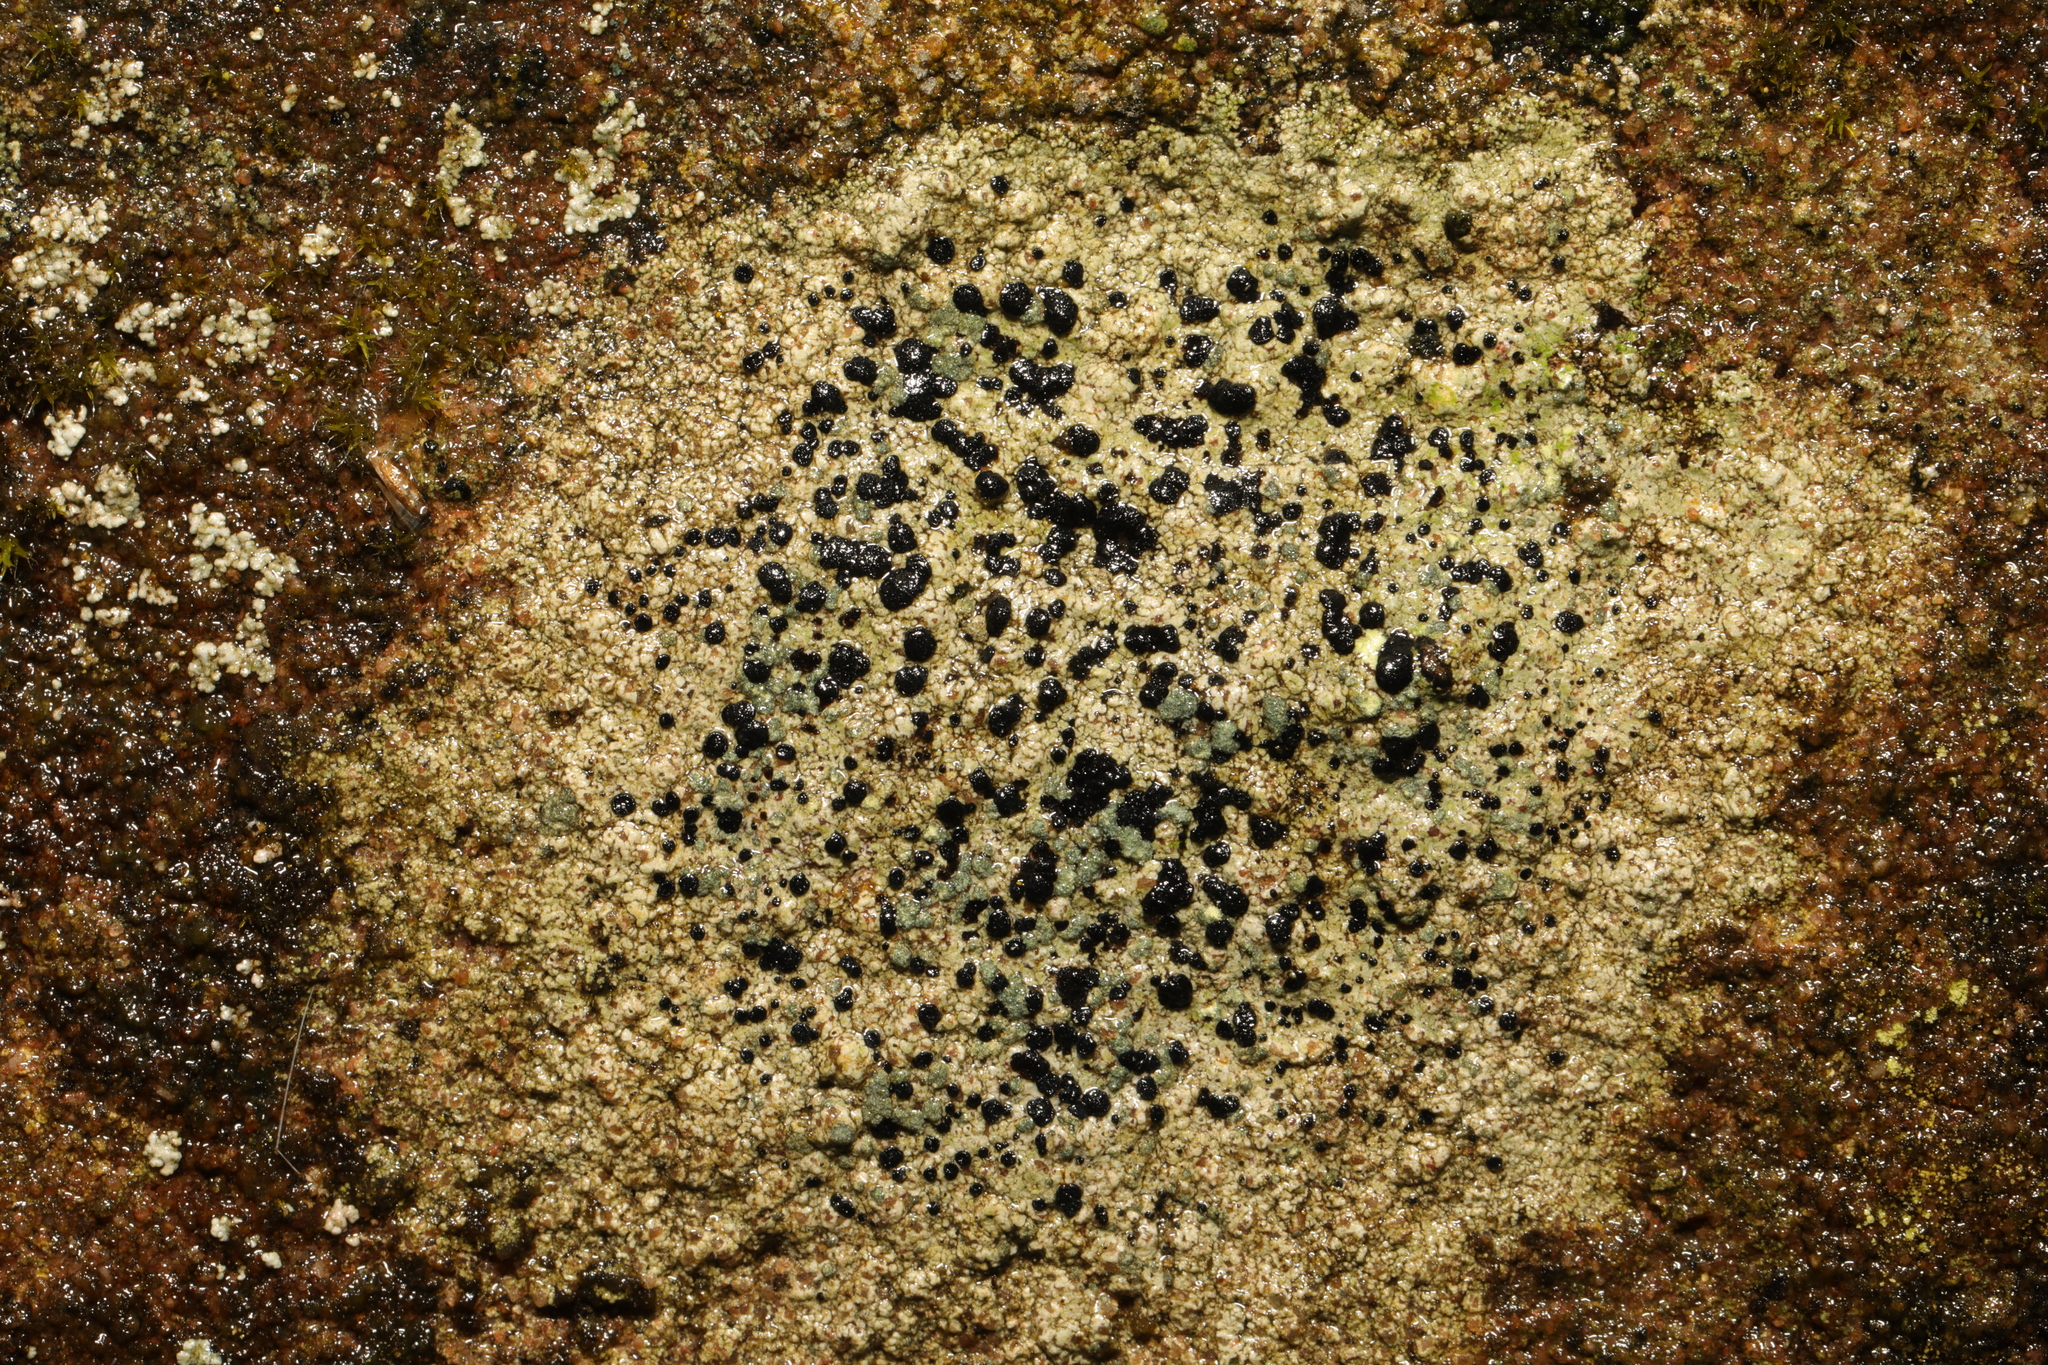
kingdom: Fungi
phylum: Ascomycota
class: Lecanoromycetes
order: Lecideales
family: Lecideaceae
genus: Porpidia
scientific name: Porpidia tuberculosa
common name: Boulder lichen
